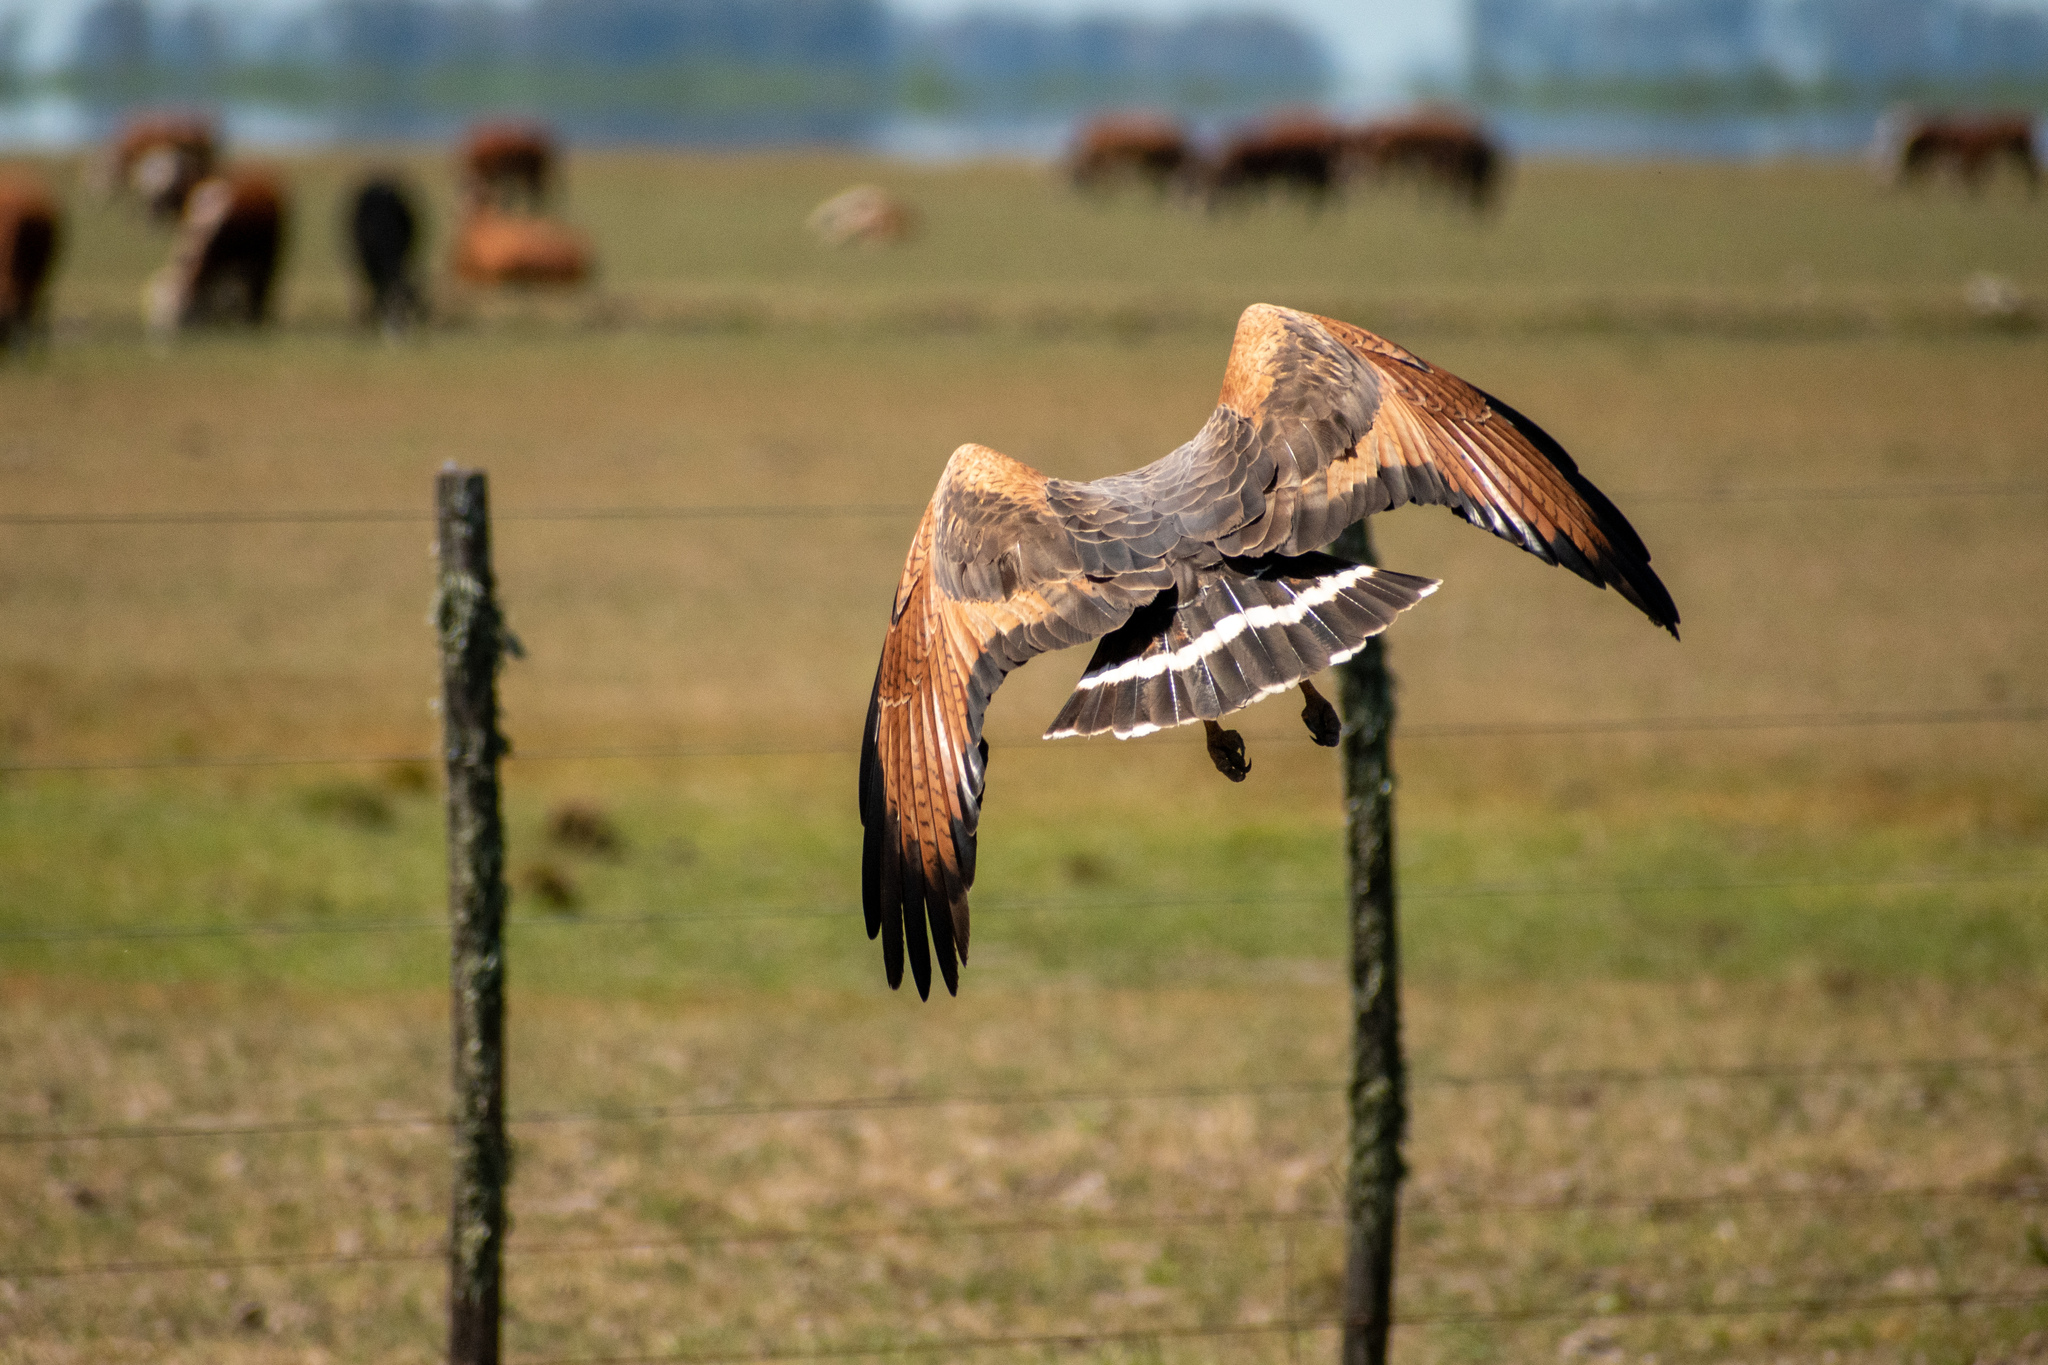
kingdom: Animalia
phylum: Chordata
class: Aves
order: Accipitriformes
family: Accipitridae
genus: Buteogallus
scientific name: Buteogallus meridionalis
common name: Savanna hawk
